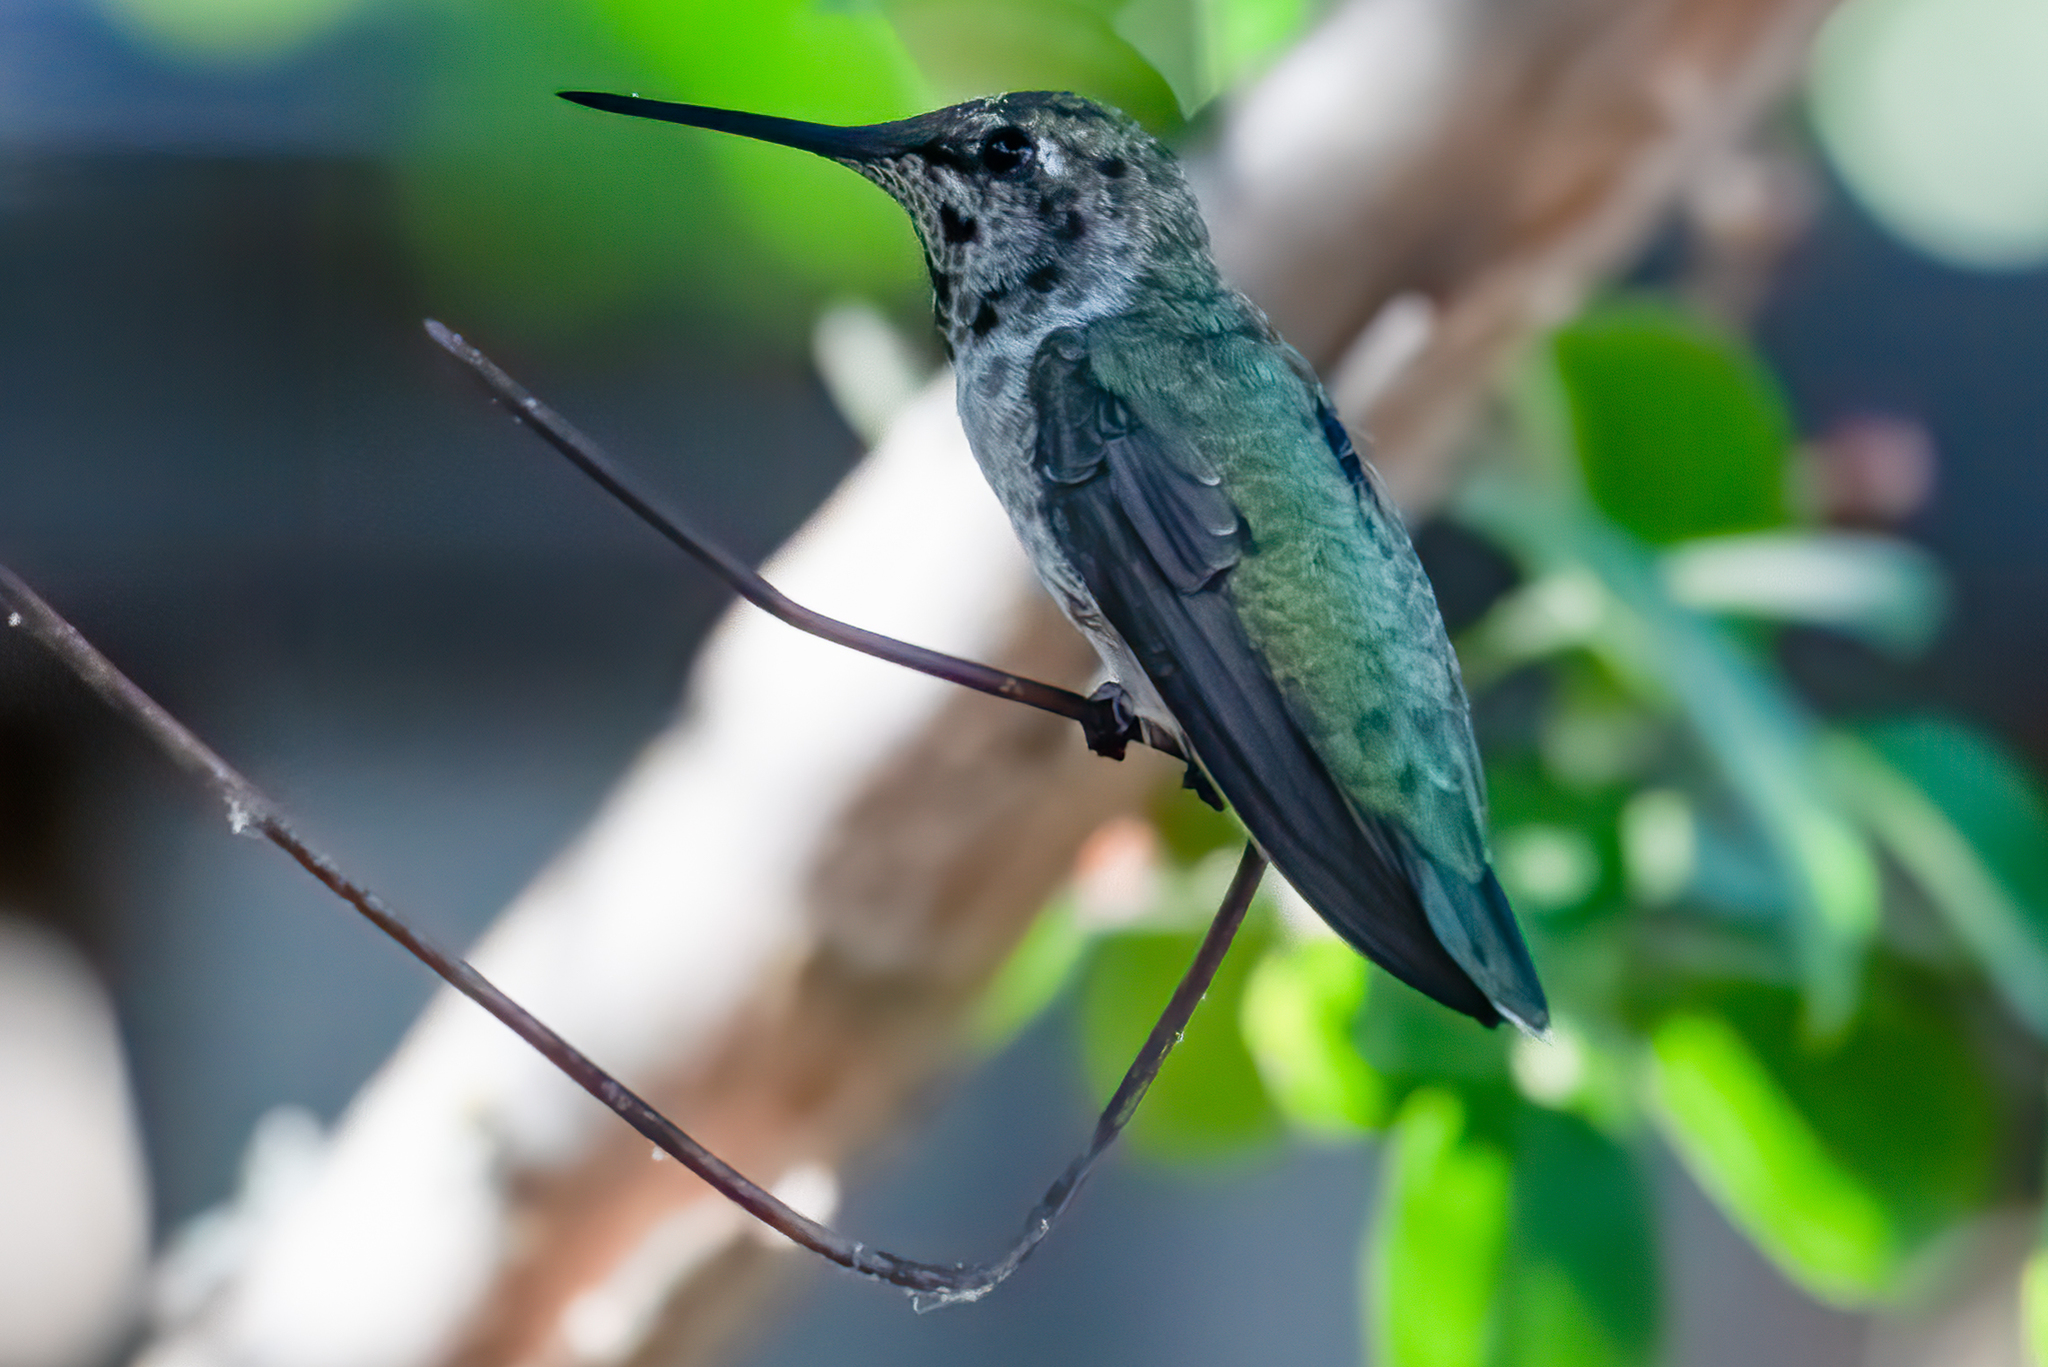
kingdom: Animalia
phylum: Chordata
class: Aves
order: Apodiformes
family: Trochilidae
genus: Calypte
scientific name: Calypte anna
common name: Anna's hummingbird
